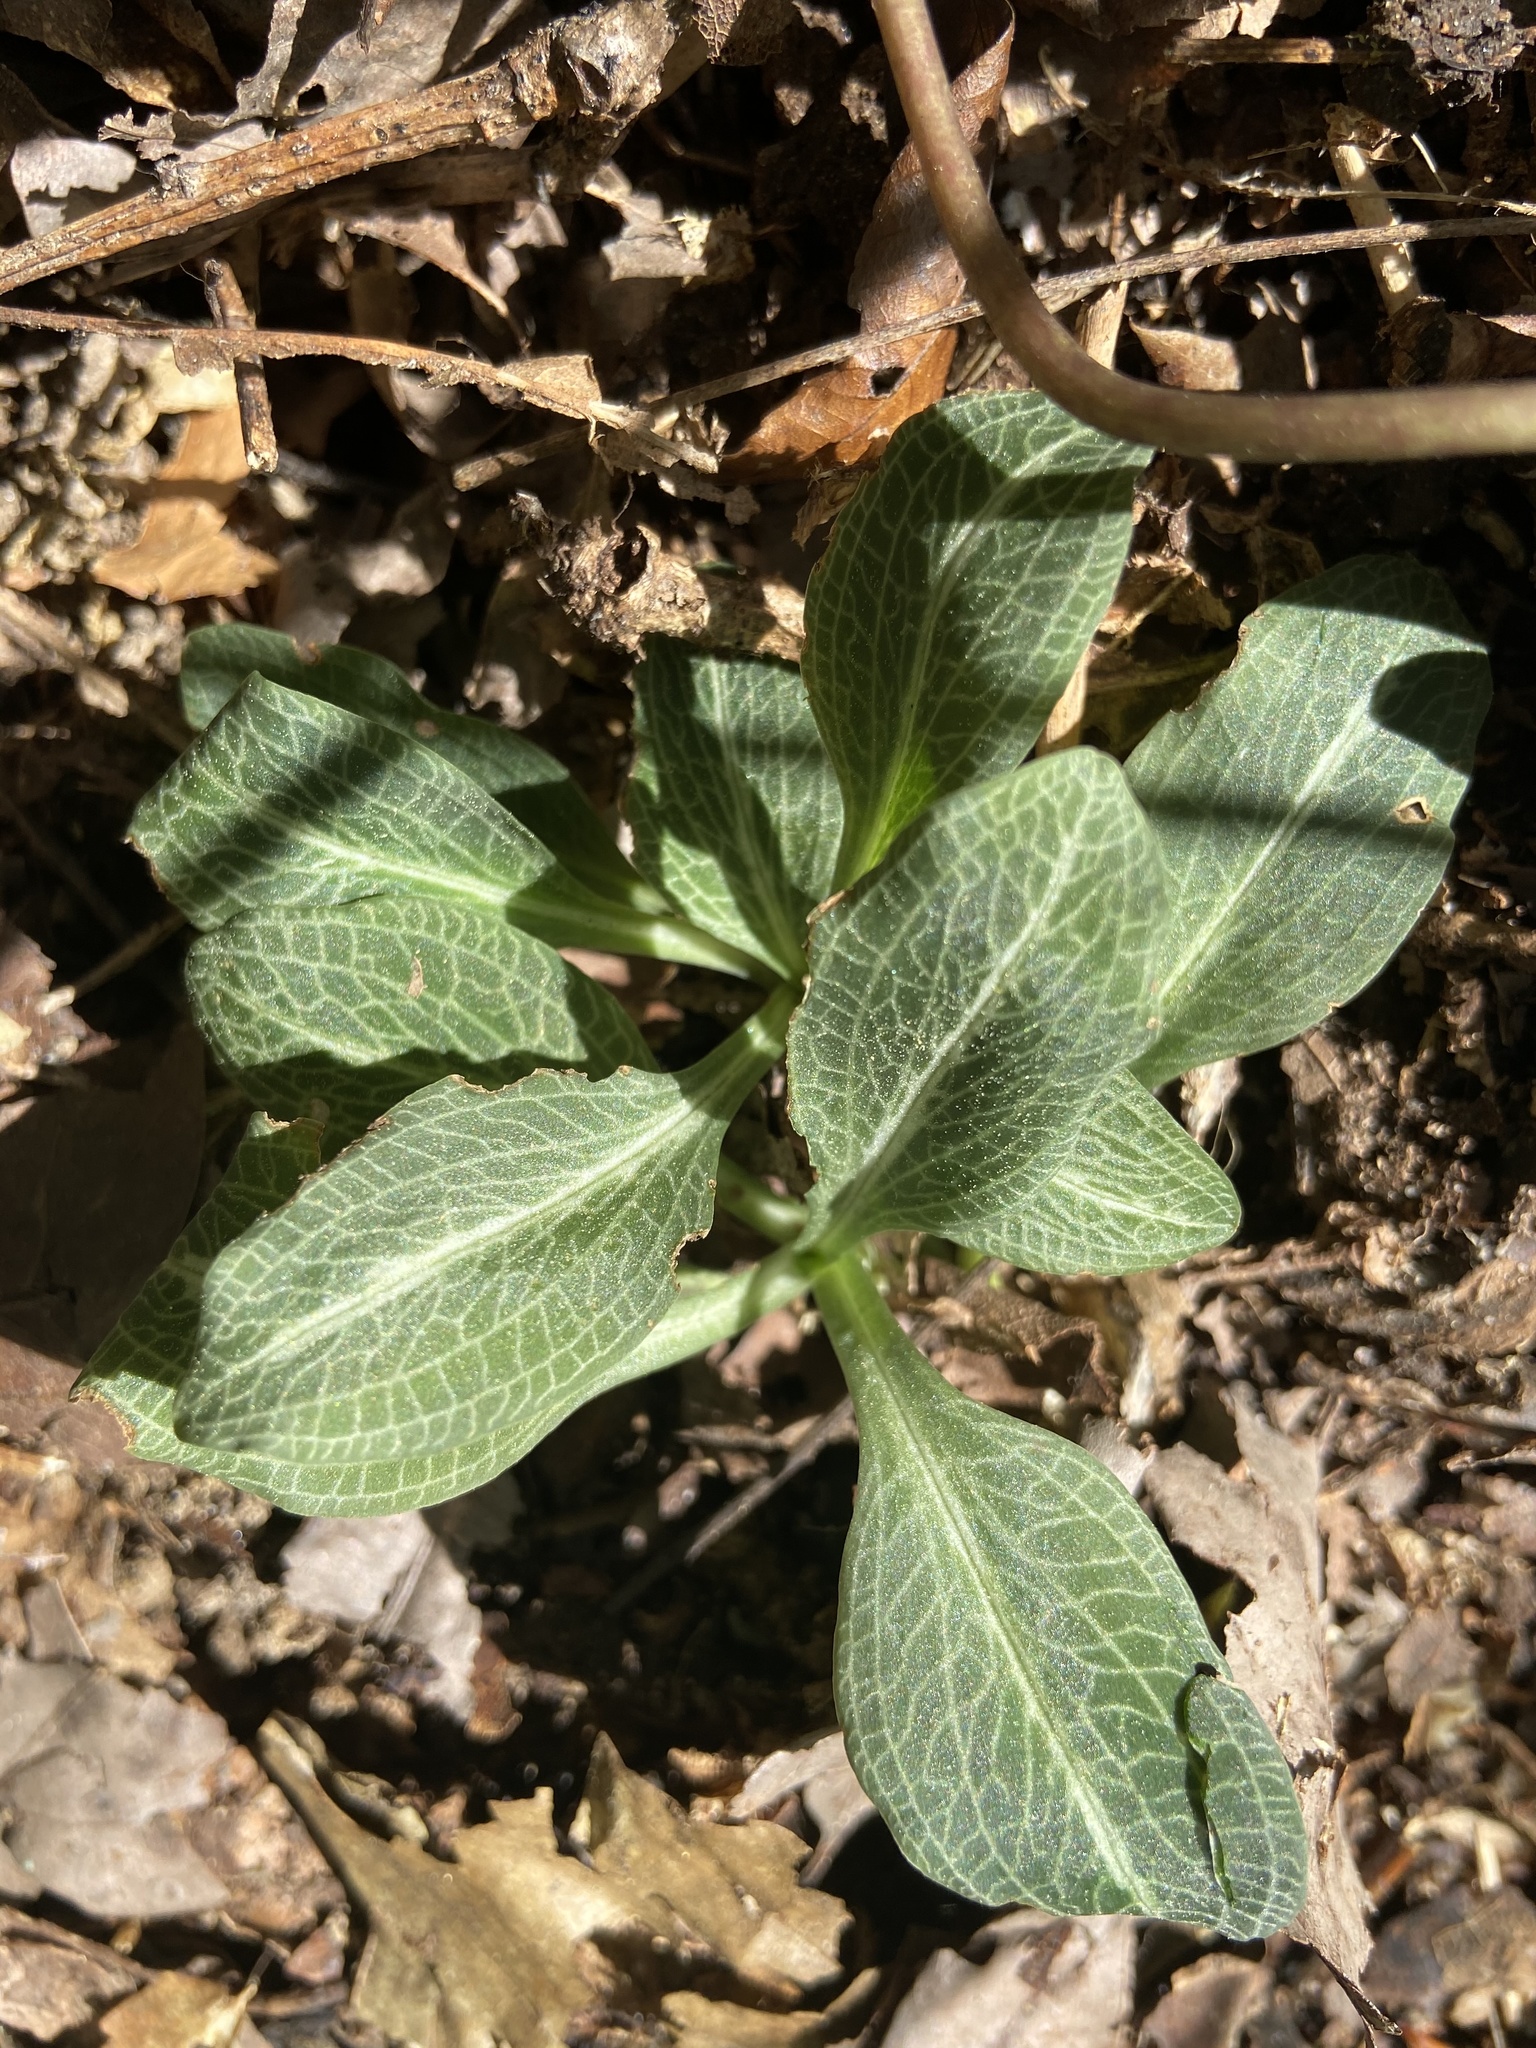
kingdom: Plantae
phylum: Tracheophyta
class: Liliopsida
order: Asparagales
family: Orchidaceae
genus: Goodyera
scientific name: Goodyera pubescens
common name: Downy rattlesnake-plantain
